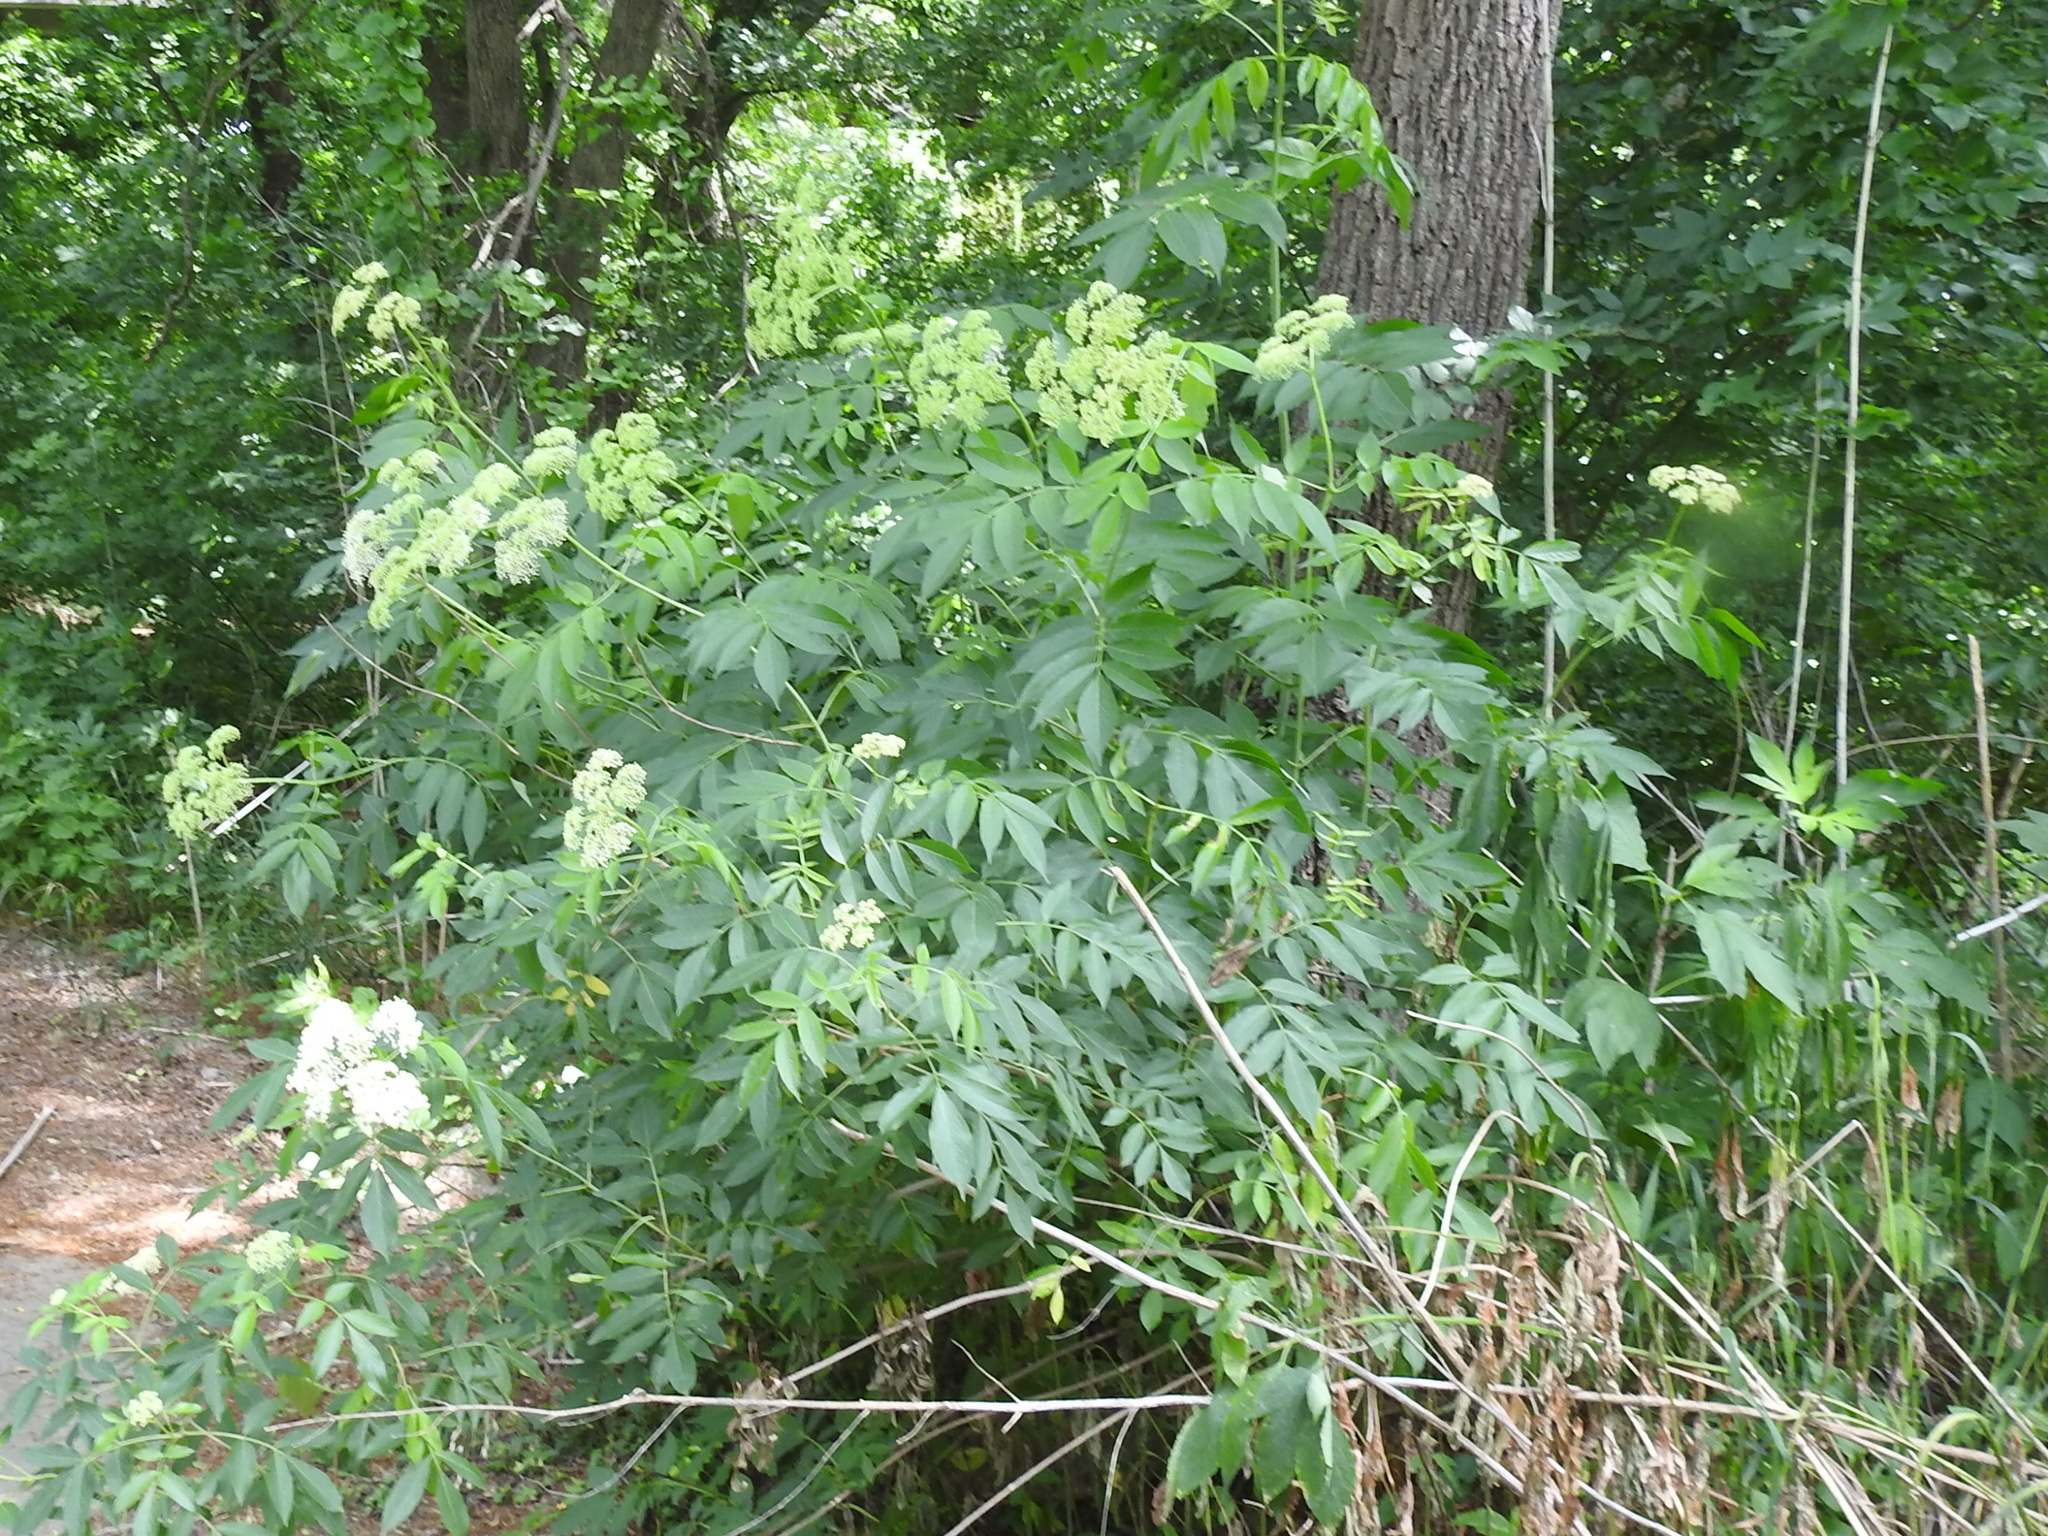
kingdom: Plantae
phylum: Tracheophyta
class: Magnoliopsida
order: Dipsacales
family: Viburnaceae
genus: Sambucus
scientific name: Sambucus canadensis
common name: American elder
